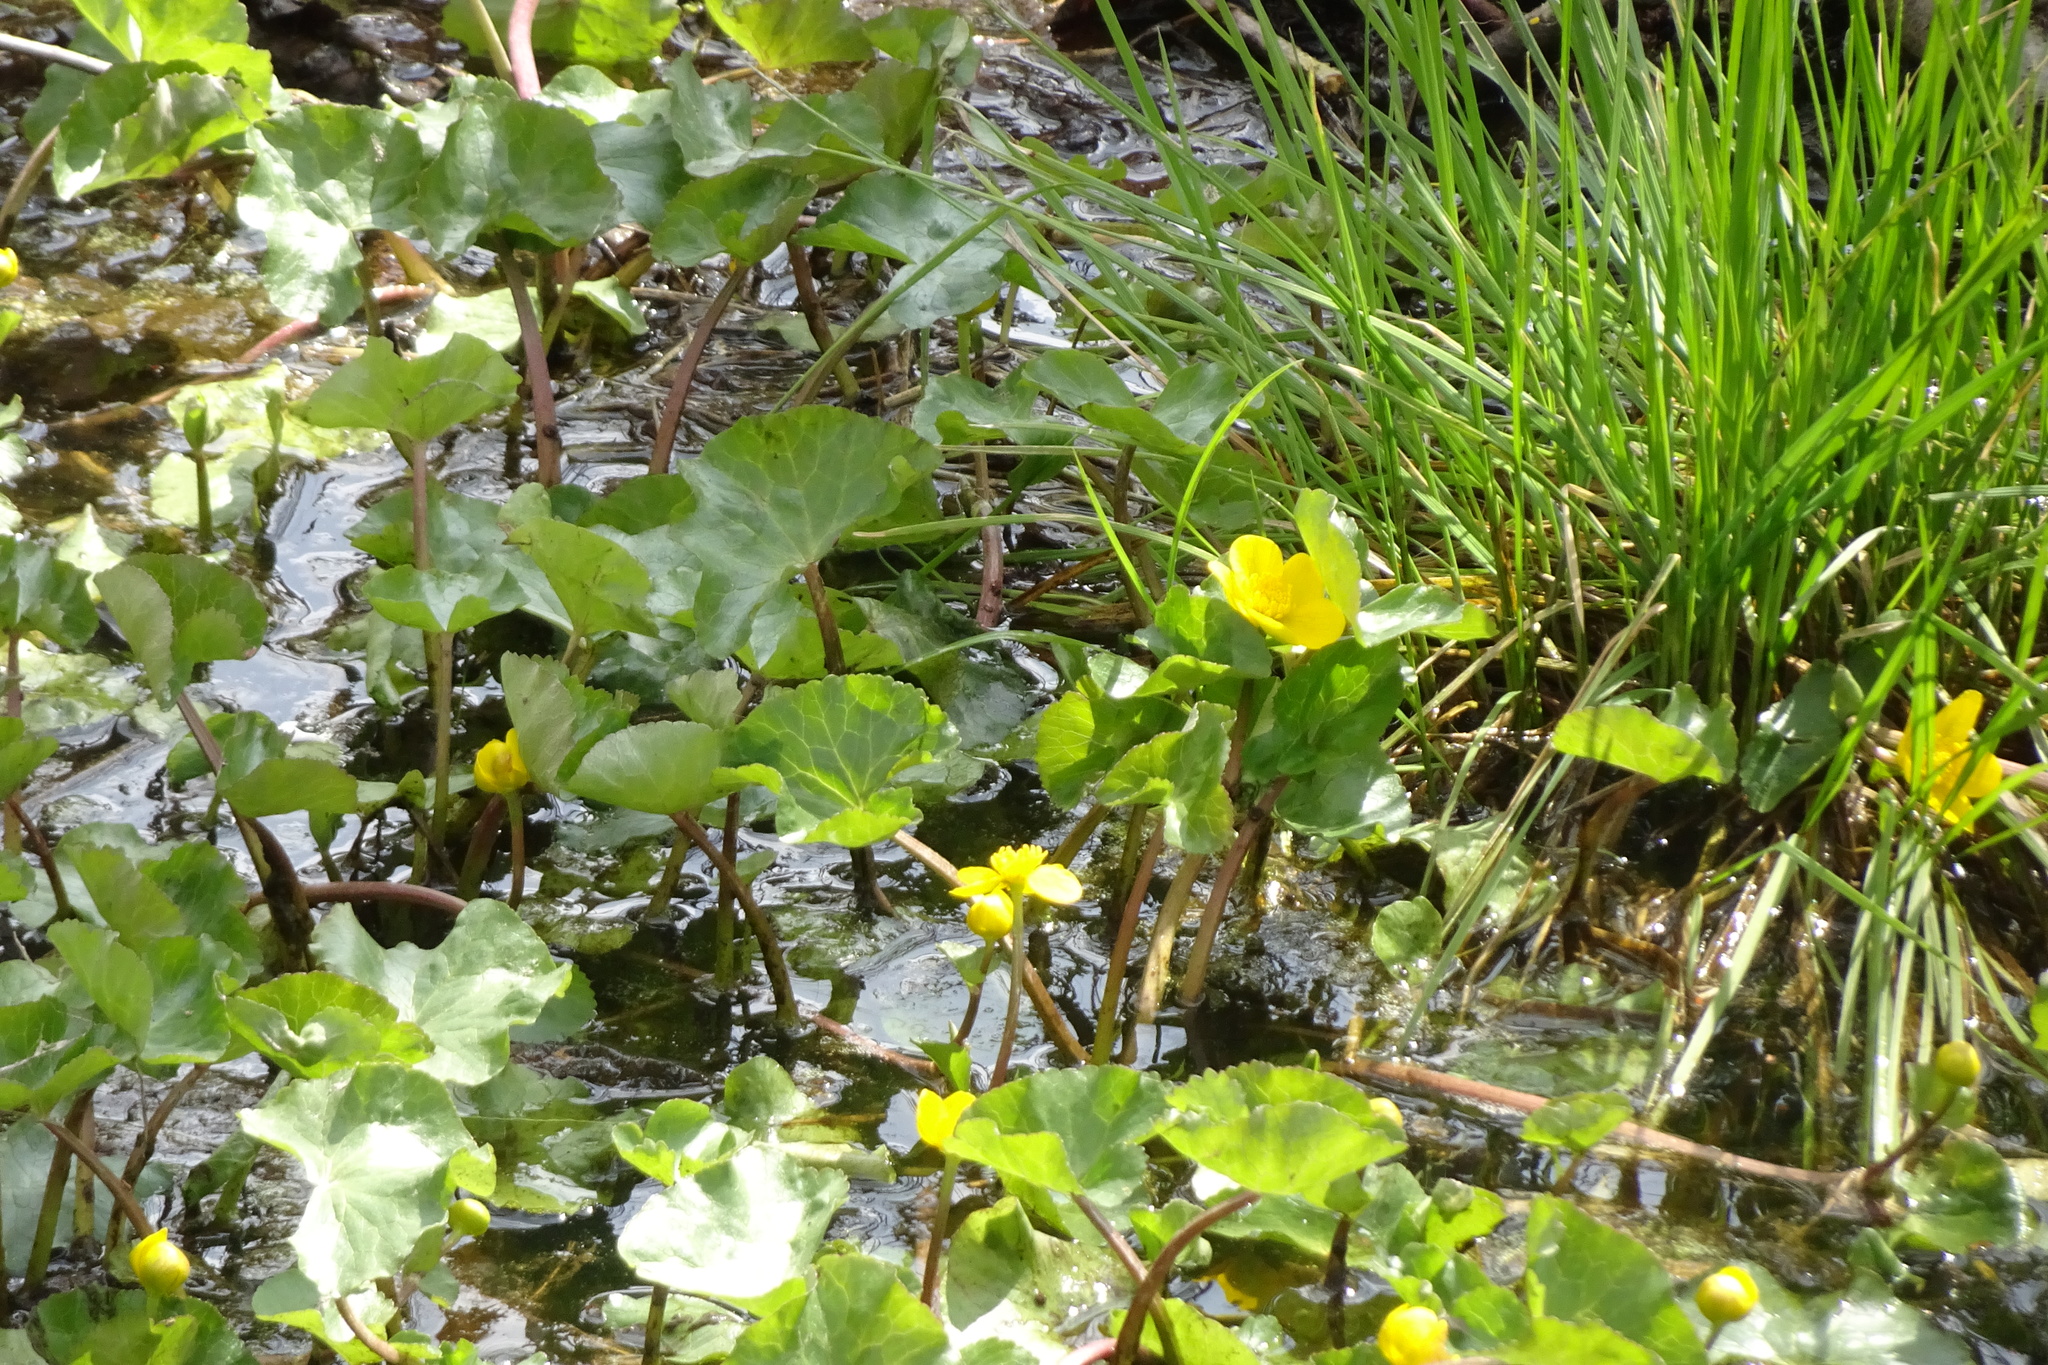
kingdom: Plantae
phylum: Tracheophyta
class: Magnoliopsida
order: Ranunculales
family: Ranunculaceae
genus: Caltha
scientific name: Caltha palustris
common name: Marsh marigold
